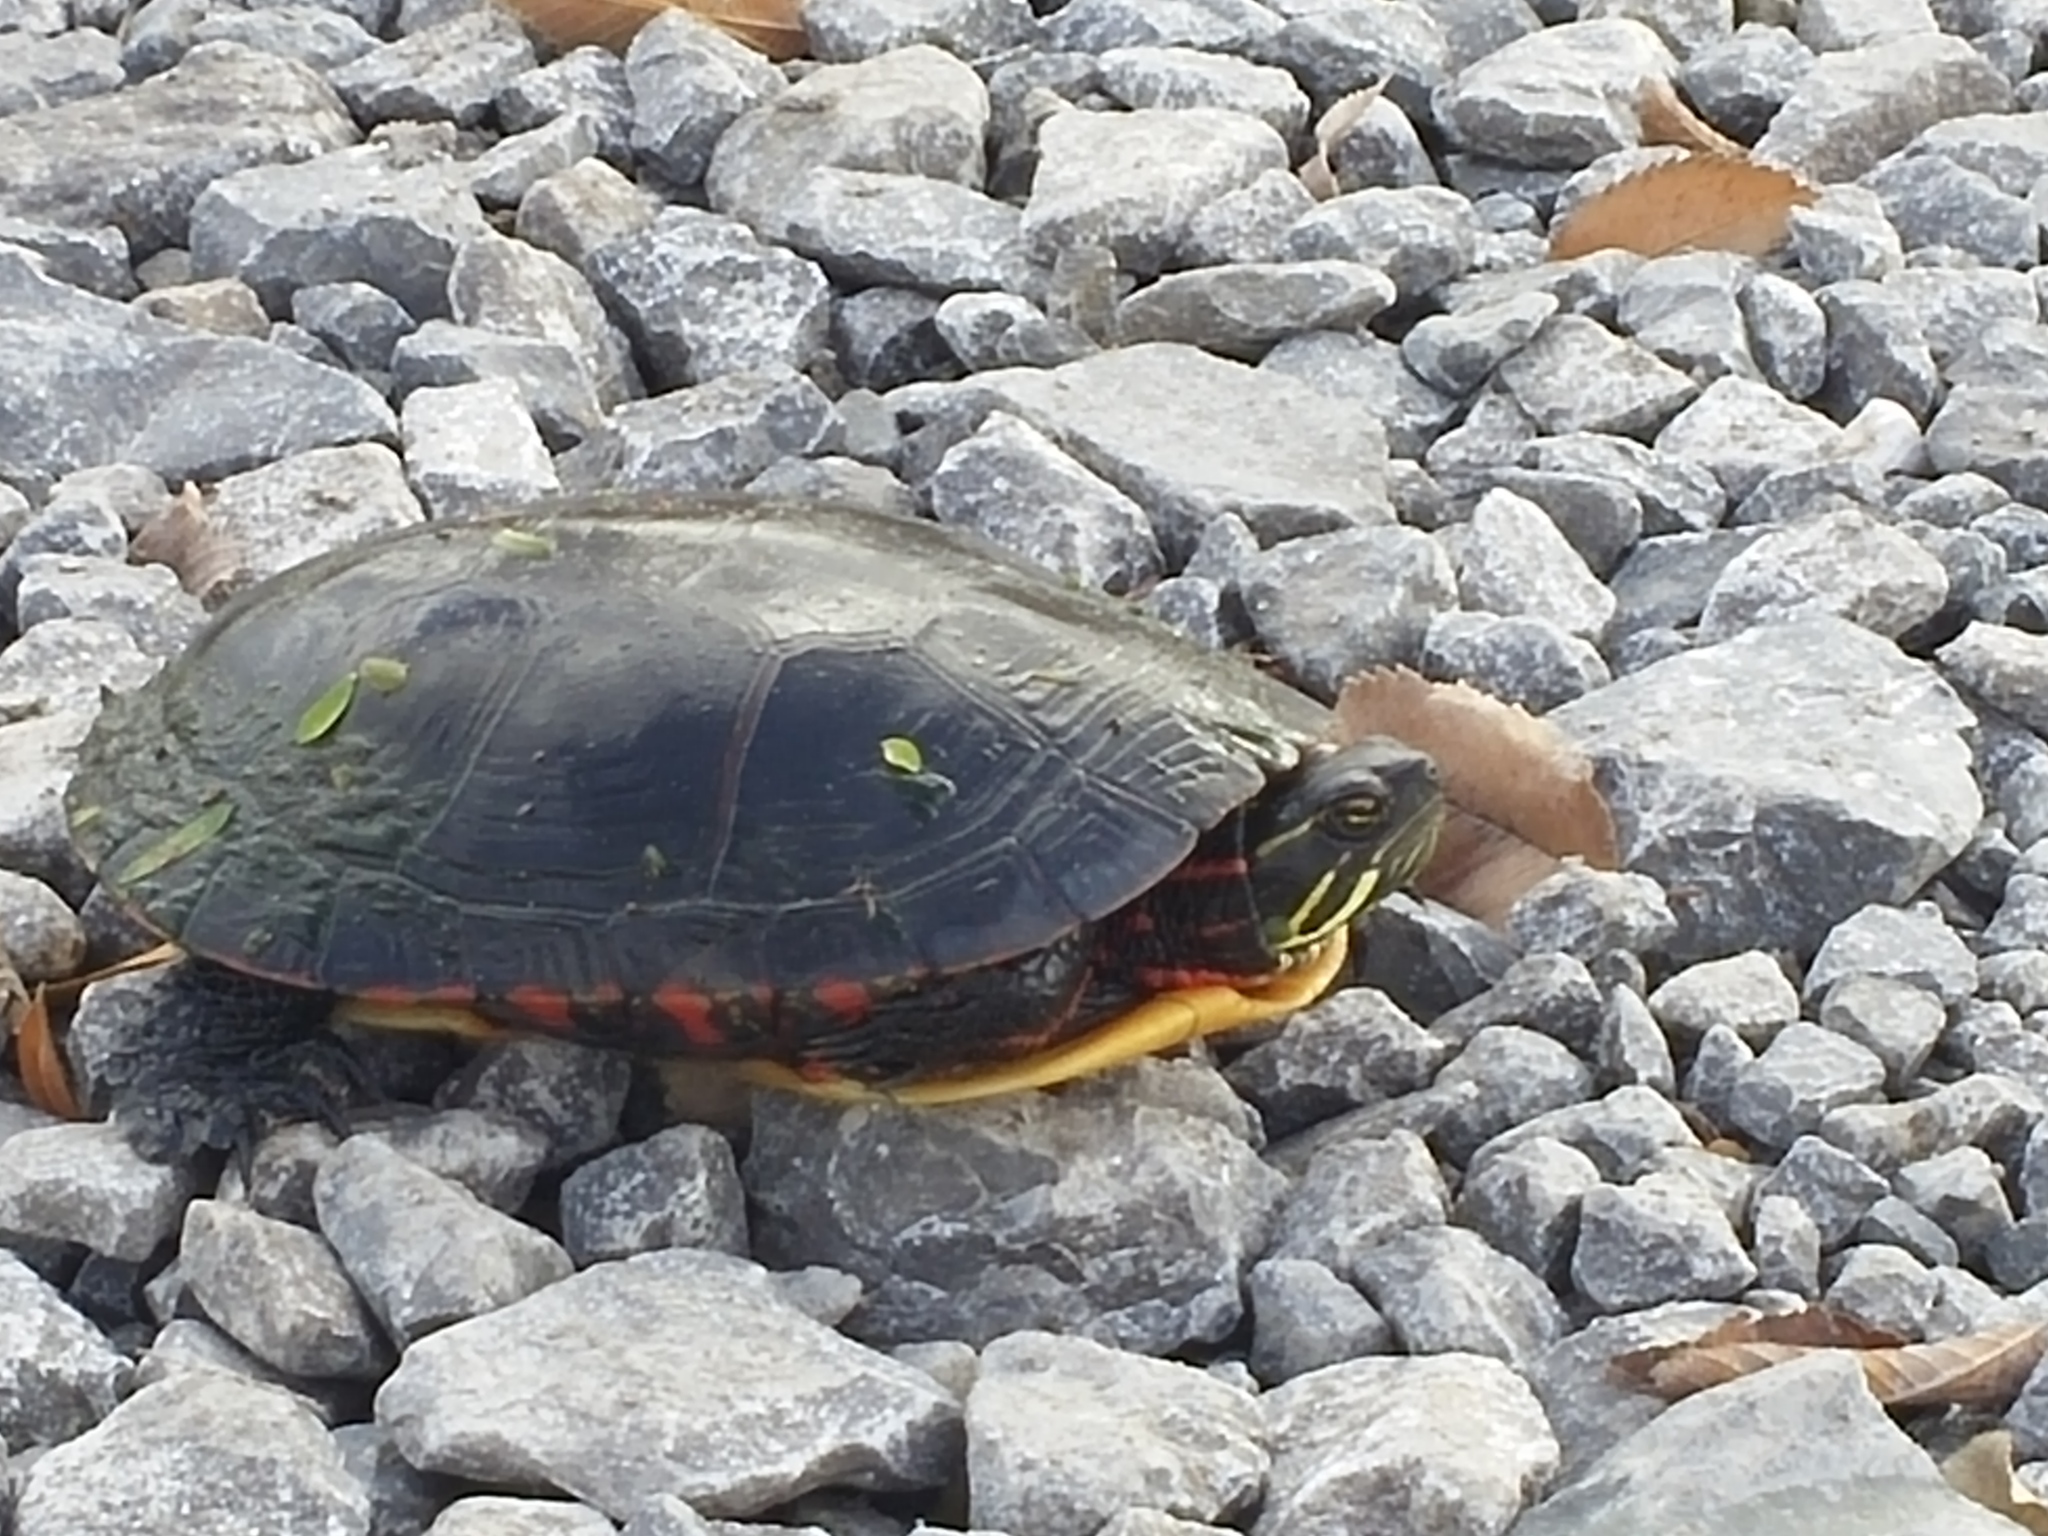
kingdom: Animalia
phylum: Chordata
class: Testudines
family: Emydidae
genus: Chrysemys
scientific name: Chrysemys picta
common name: Painted turtle
